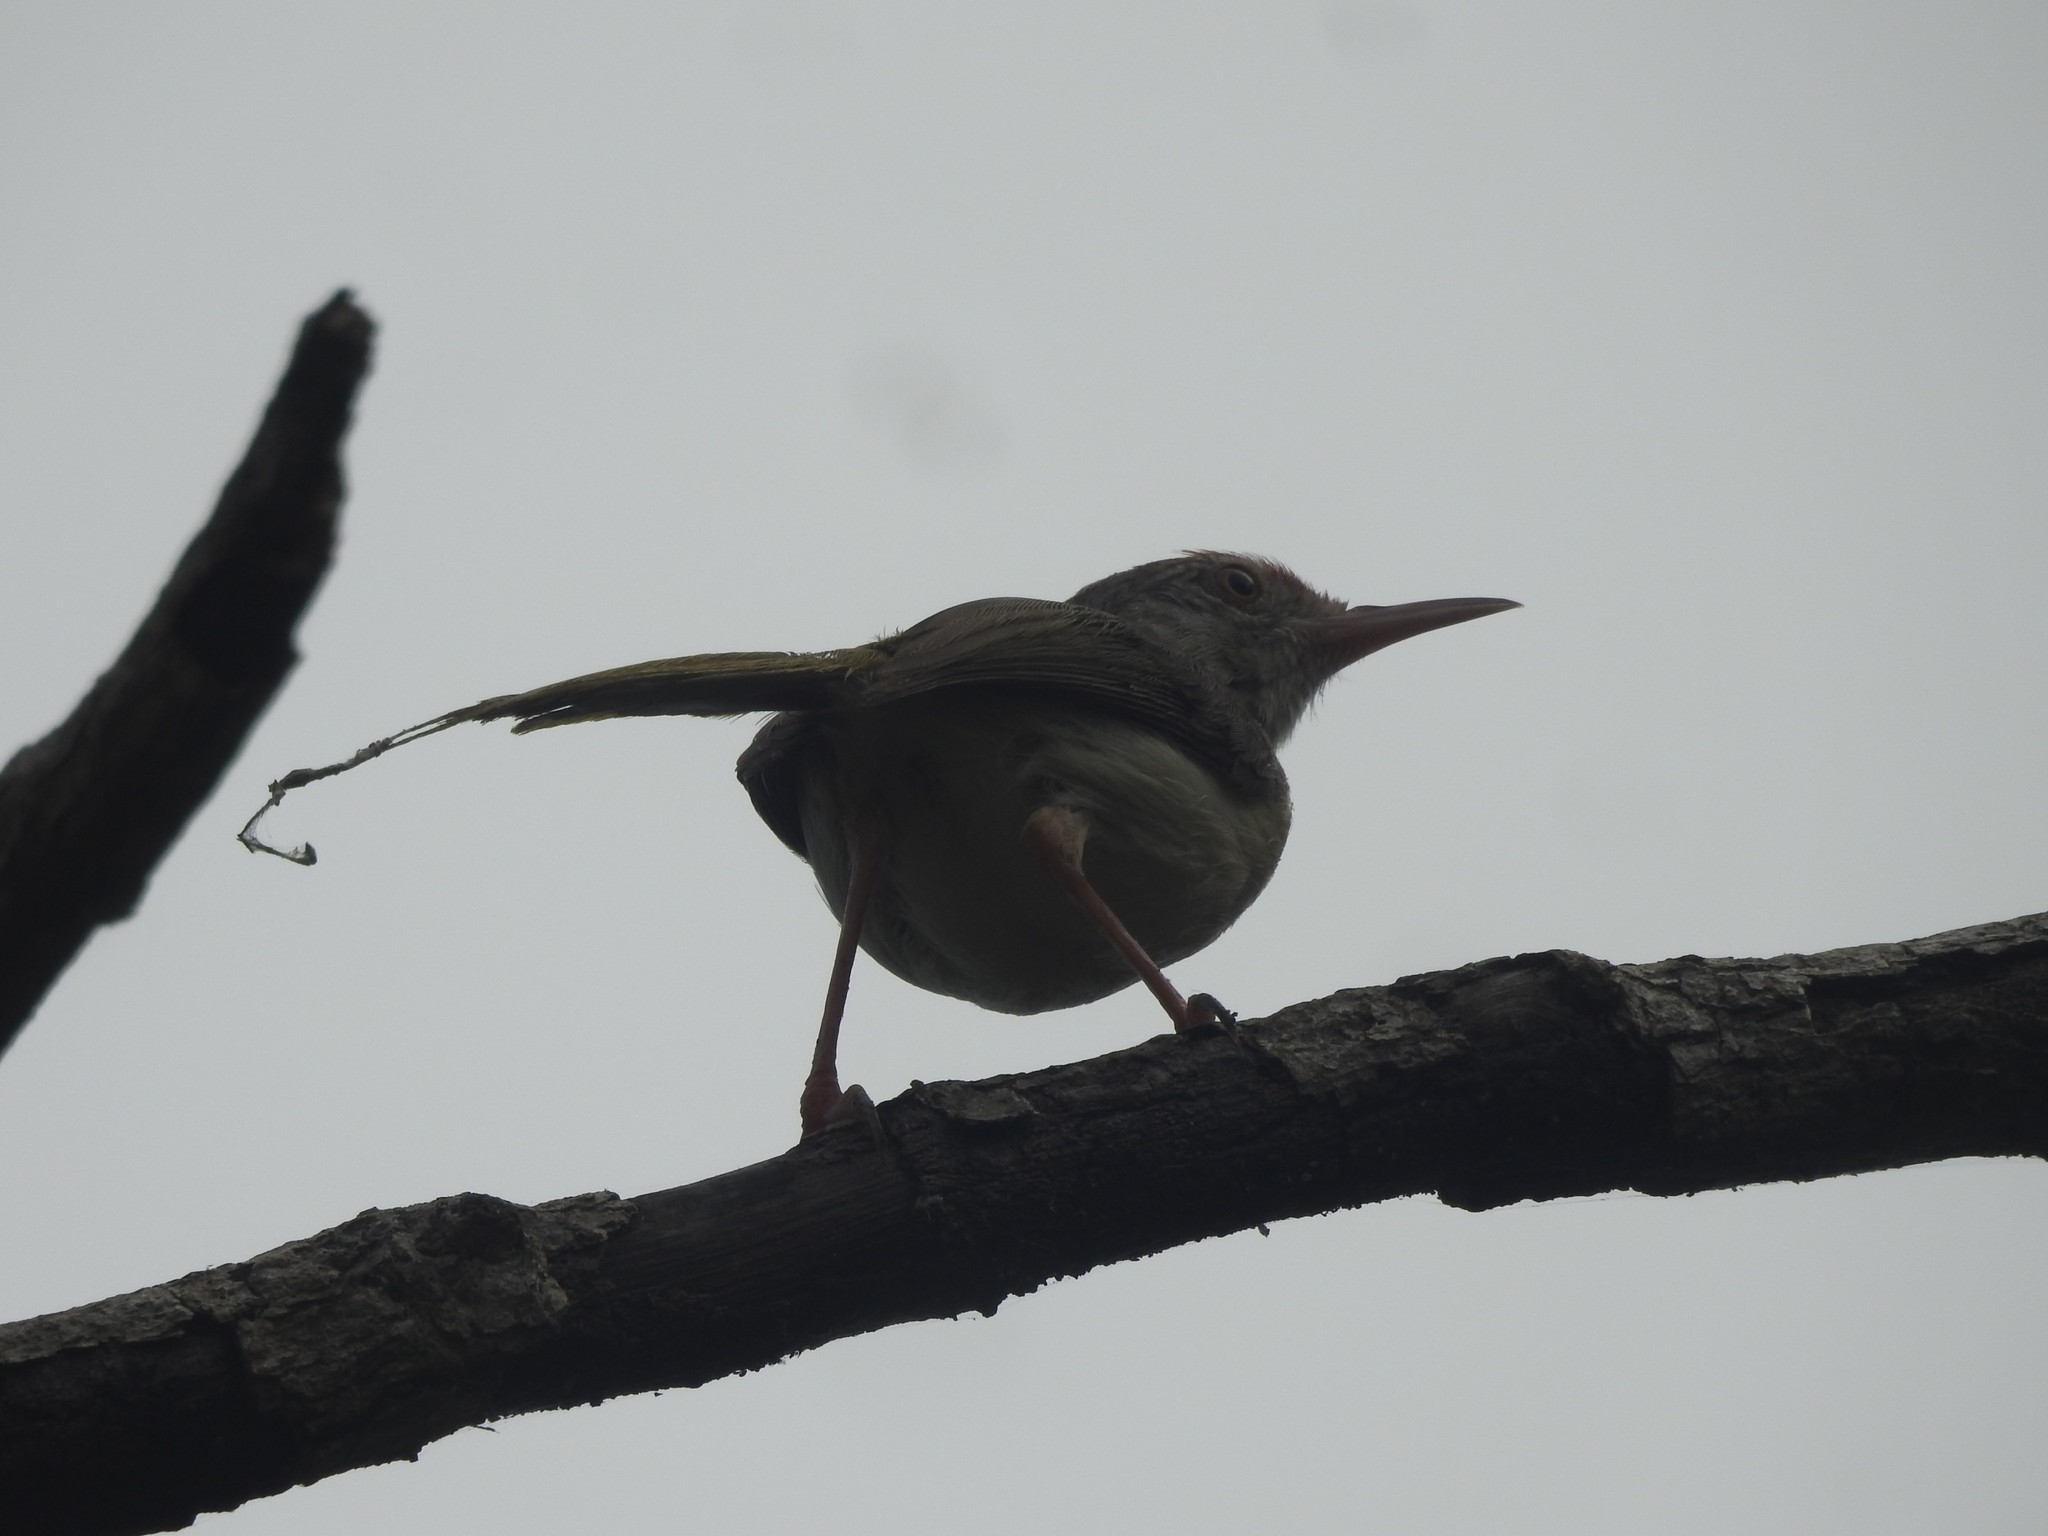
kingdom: Animalia
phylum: Chordata
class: Aves
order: Passeriformes
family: Cisticolidae
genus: Orthotomus
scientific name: Orthotomus sutorius
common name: Common tailorbird
